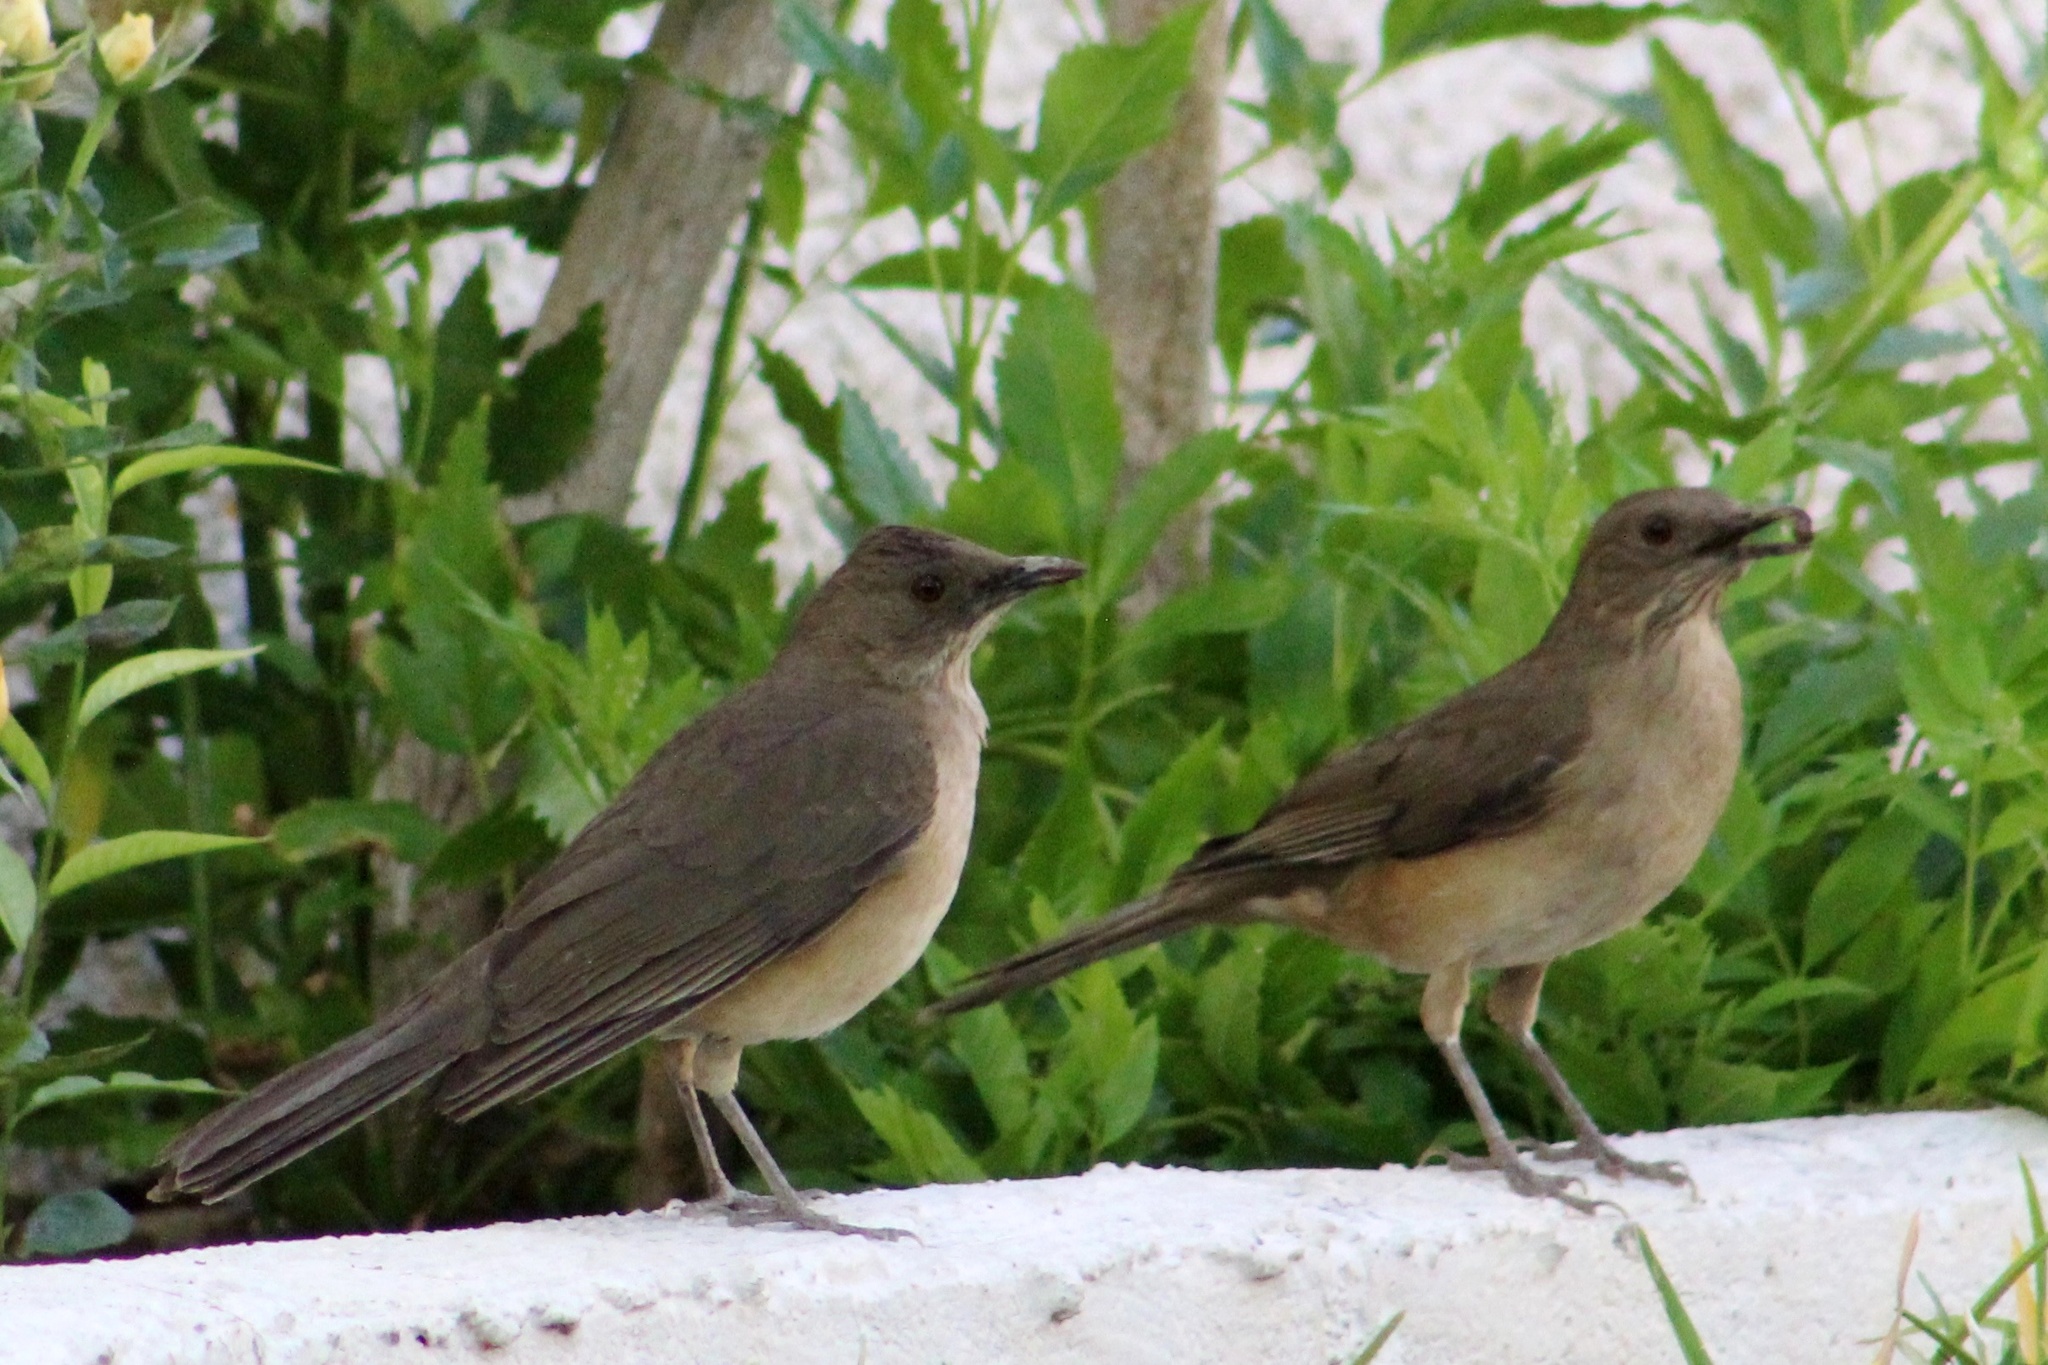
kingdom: Animalia
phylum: Chordata
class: Aves
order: Passeriformes
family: Turdidae
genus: Turdus
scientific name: Turdus grayi
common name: Clay-colored thrush
